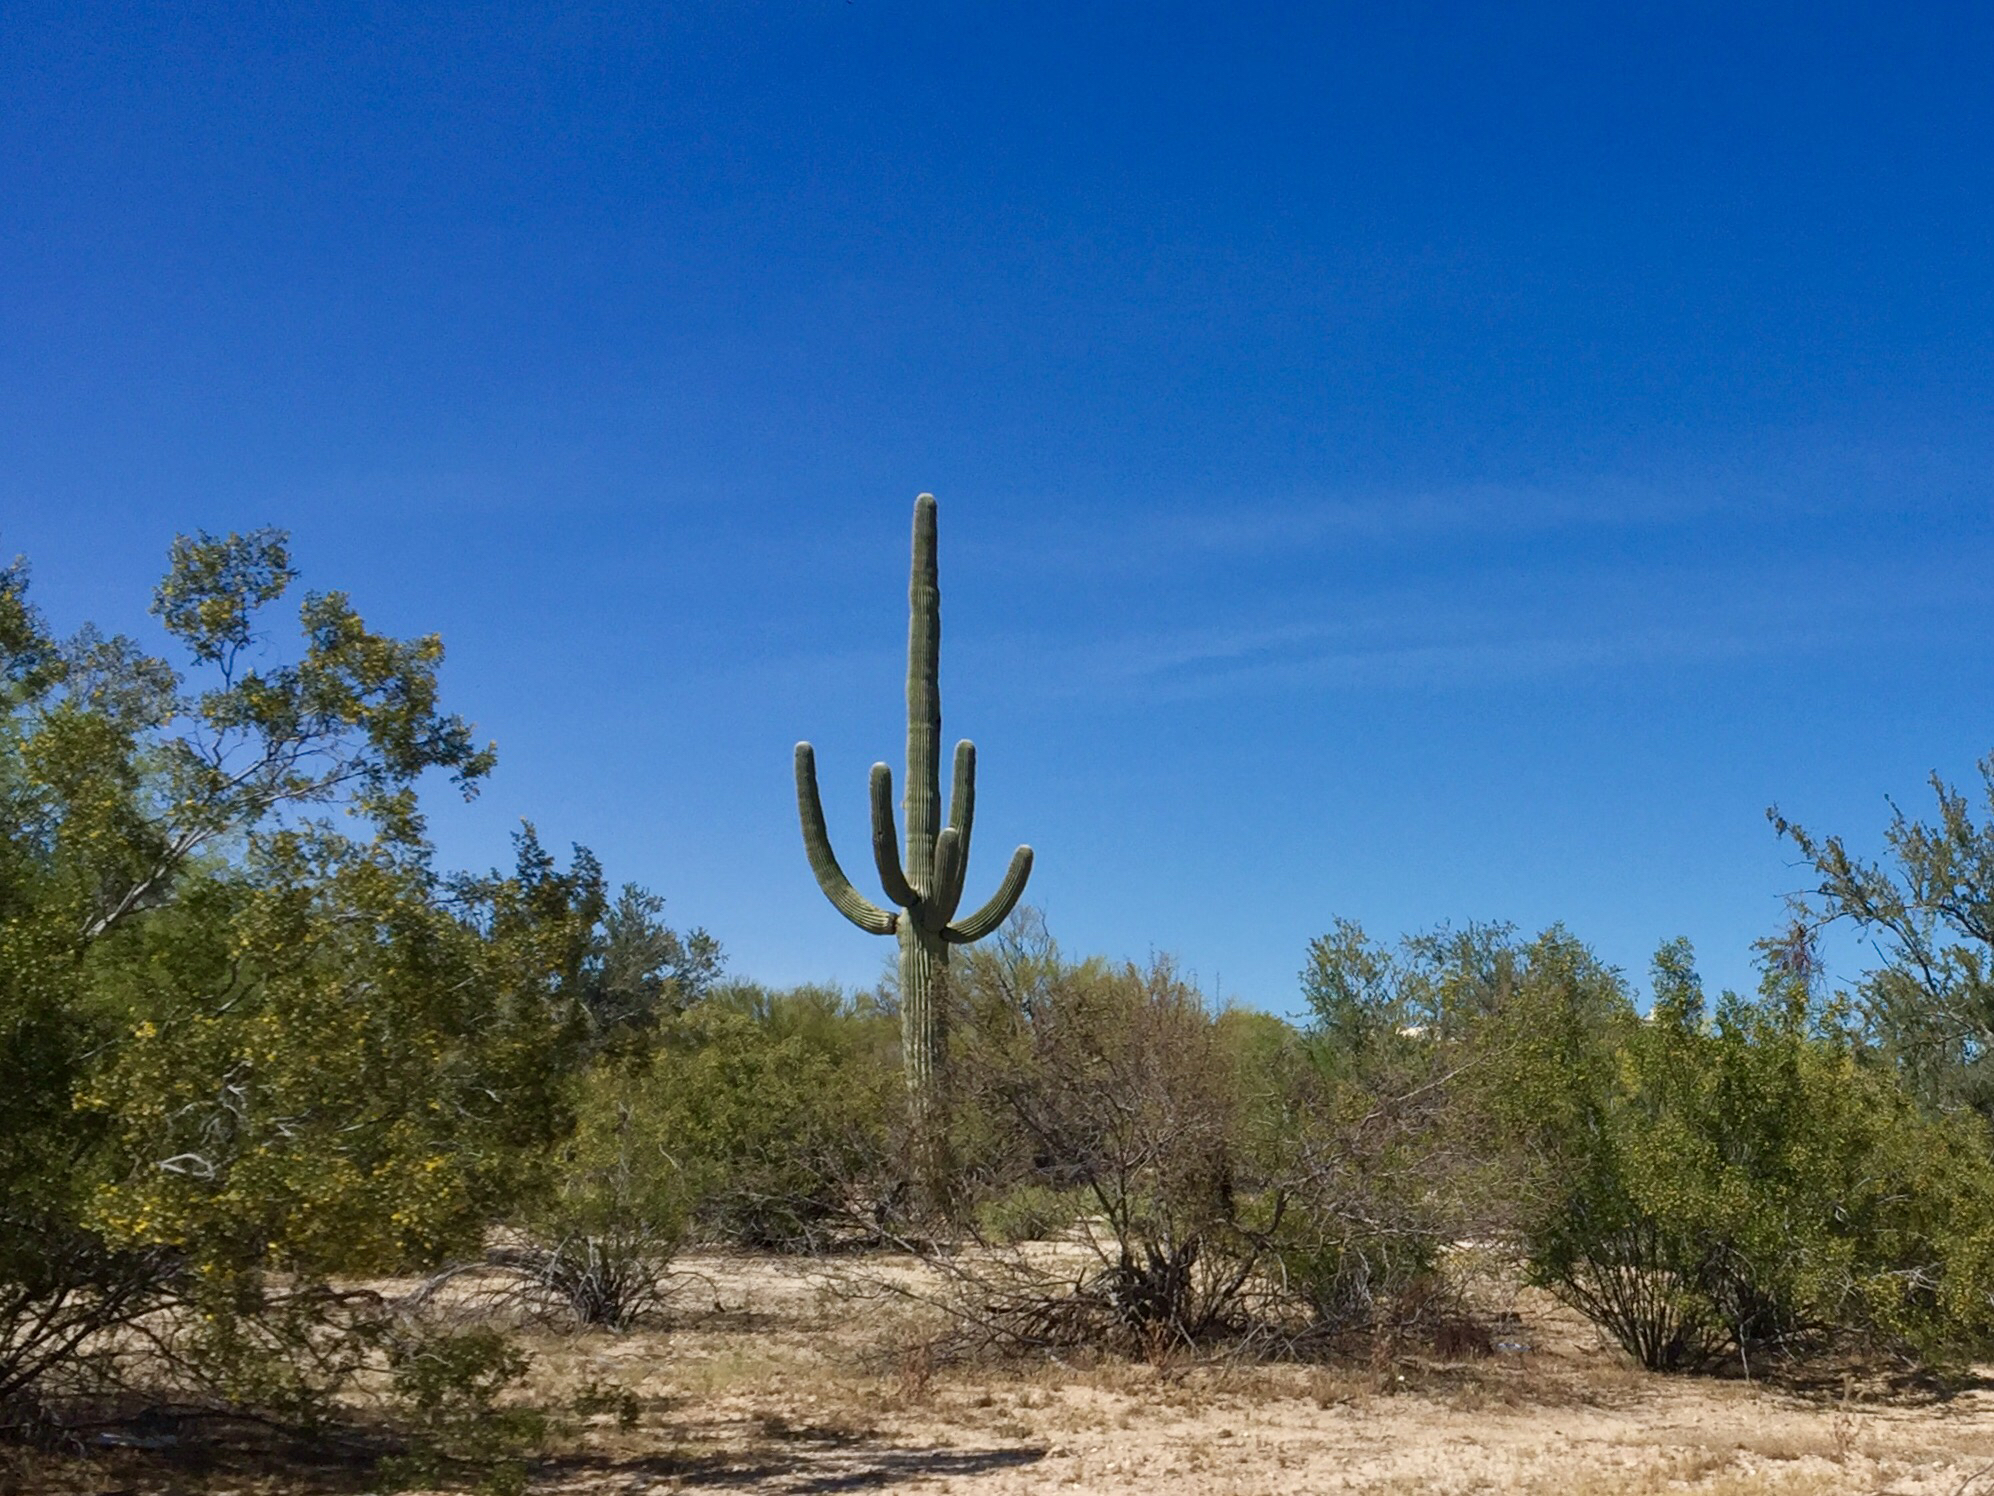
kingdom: Plantae
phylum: Tracheophyta
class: Magnoliopsida
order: Caryophyllales
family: Cactaceae
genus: Carnegiea
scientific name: Carnegiea gigantea
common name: Saguaro
